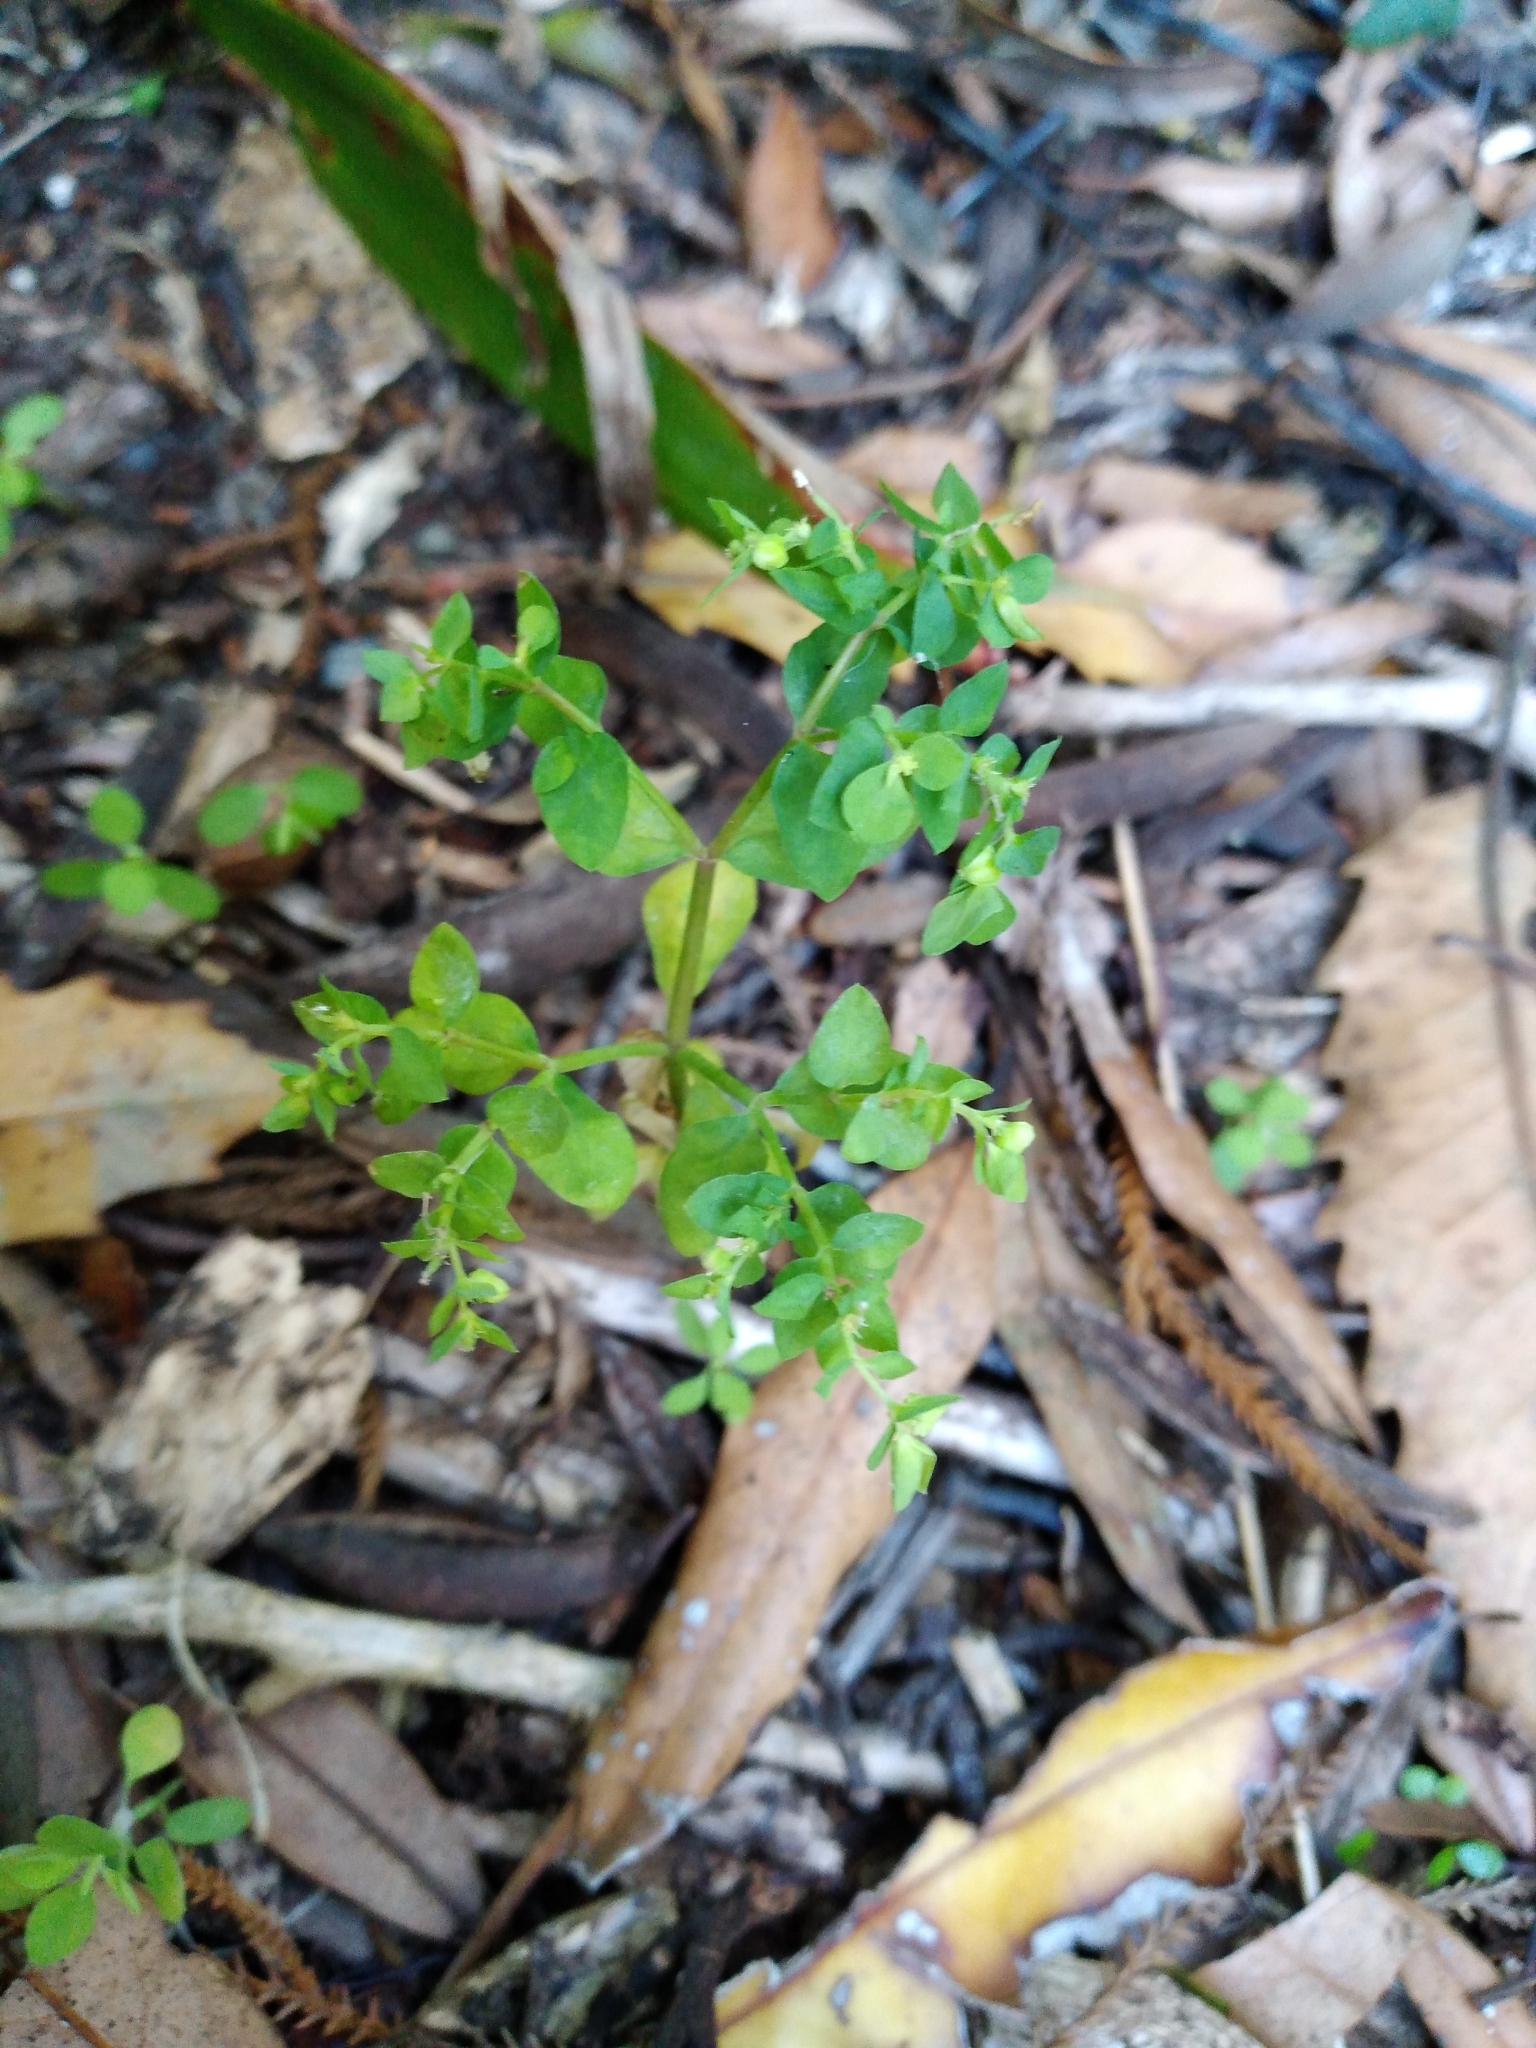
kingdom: Plantae
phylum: Tracheophyta
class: Magnoliopsida
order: Malpighiales
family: Euphorbiaceae
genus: Euphorbia
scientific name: Euphorbia peplus
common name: Petty spurge
